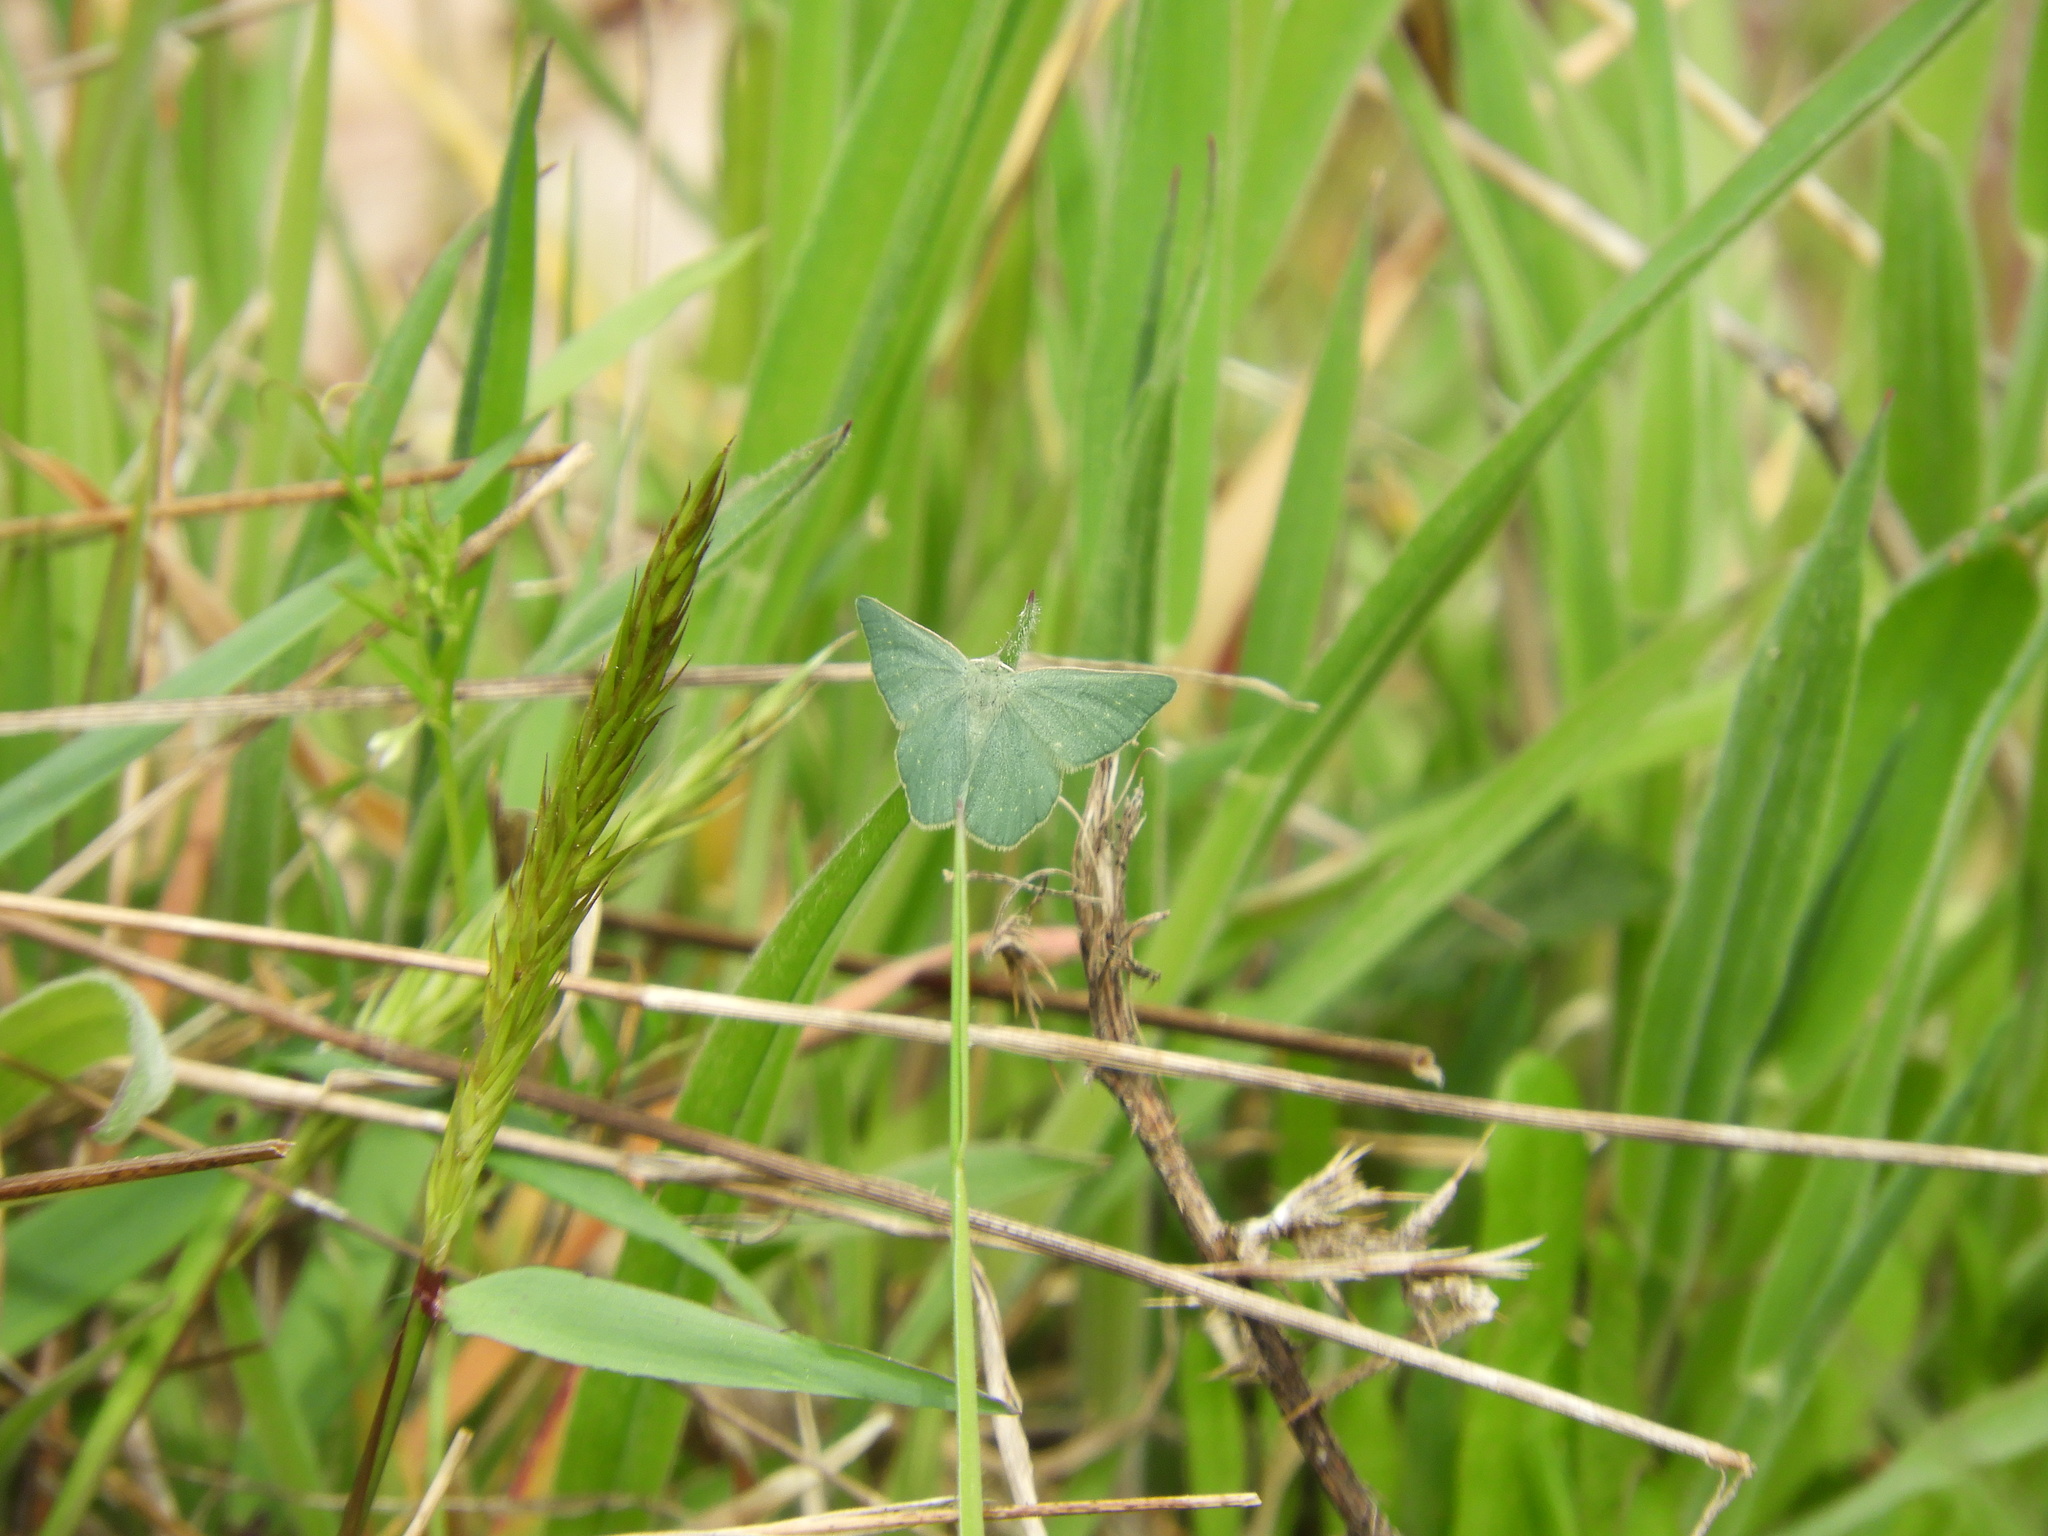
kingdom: Animalia
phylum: Arthropoda
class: Insecta
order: Lepidoptera
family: Geometridae
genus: Mesothea
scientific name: Mesothea incertata
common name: Day emerald moth
